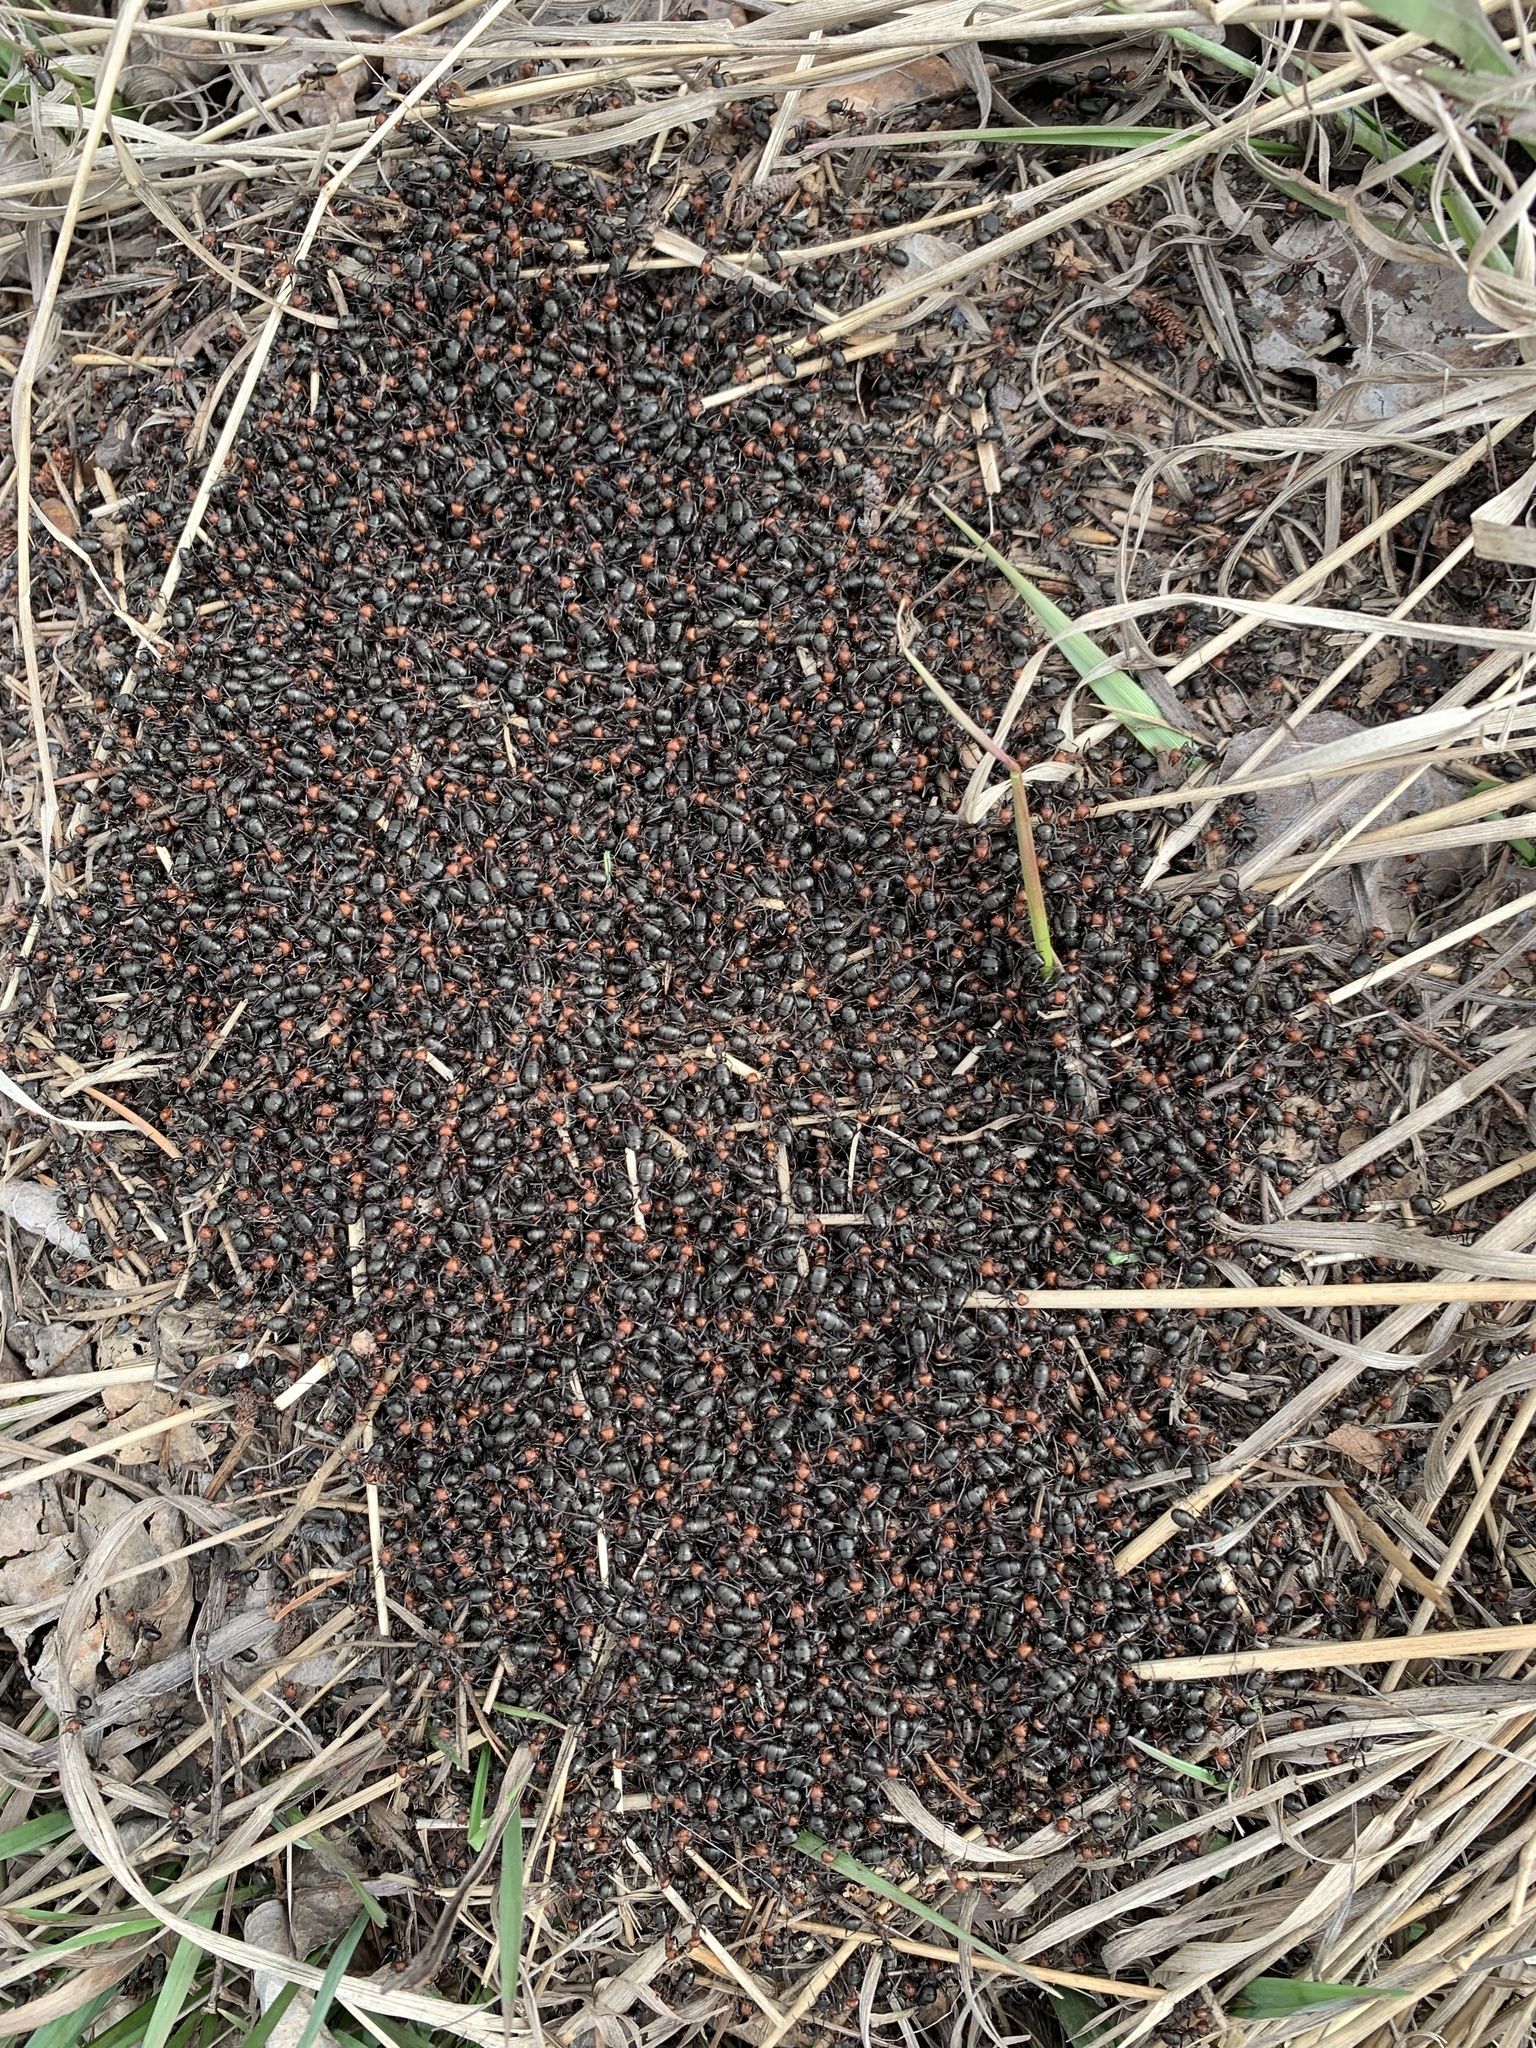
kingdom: Animalia
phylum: Arthropoda
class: Insecta
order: Hymenoptera
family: Formicidae
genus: Formica
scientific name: Formica obscuripes
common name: Western thatching ant
